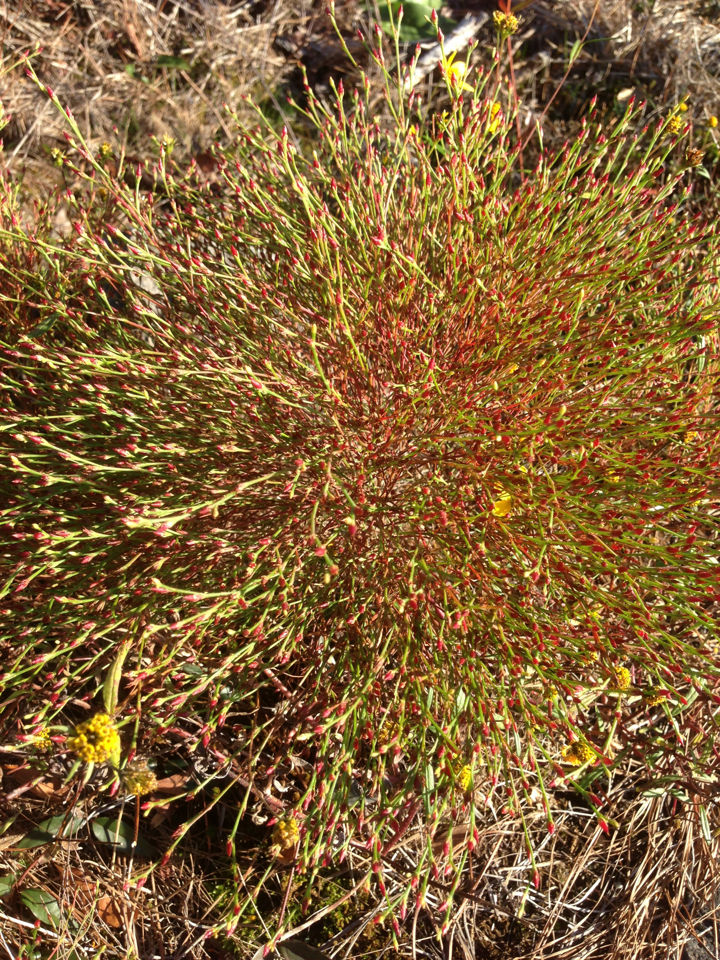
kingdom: Plantae
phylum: Tracheophyta
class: Magnoliopsida
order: Malpighiales
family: Hypericaceae
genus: Hypericum
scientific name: Hypericum gentianoides
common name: Gentian-leaved st. john's-wort
